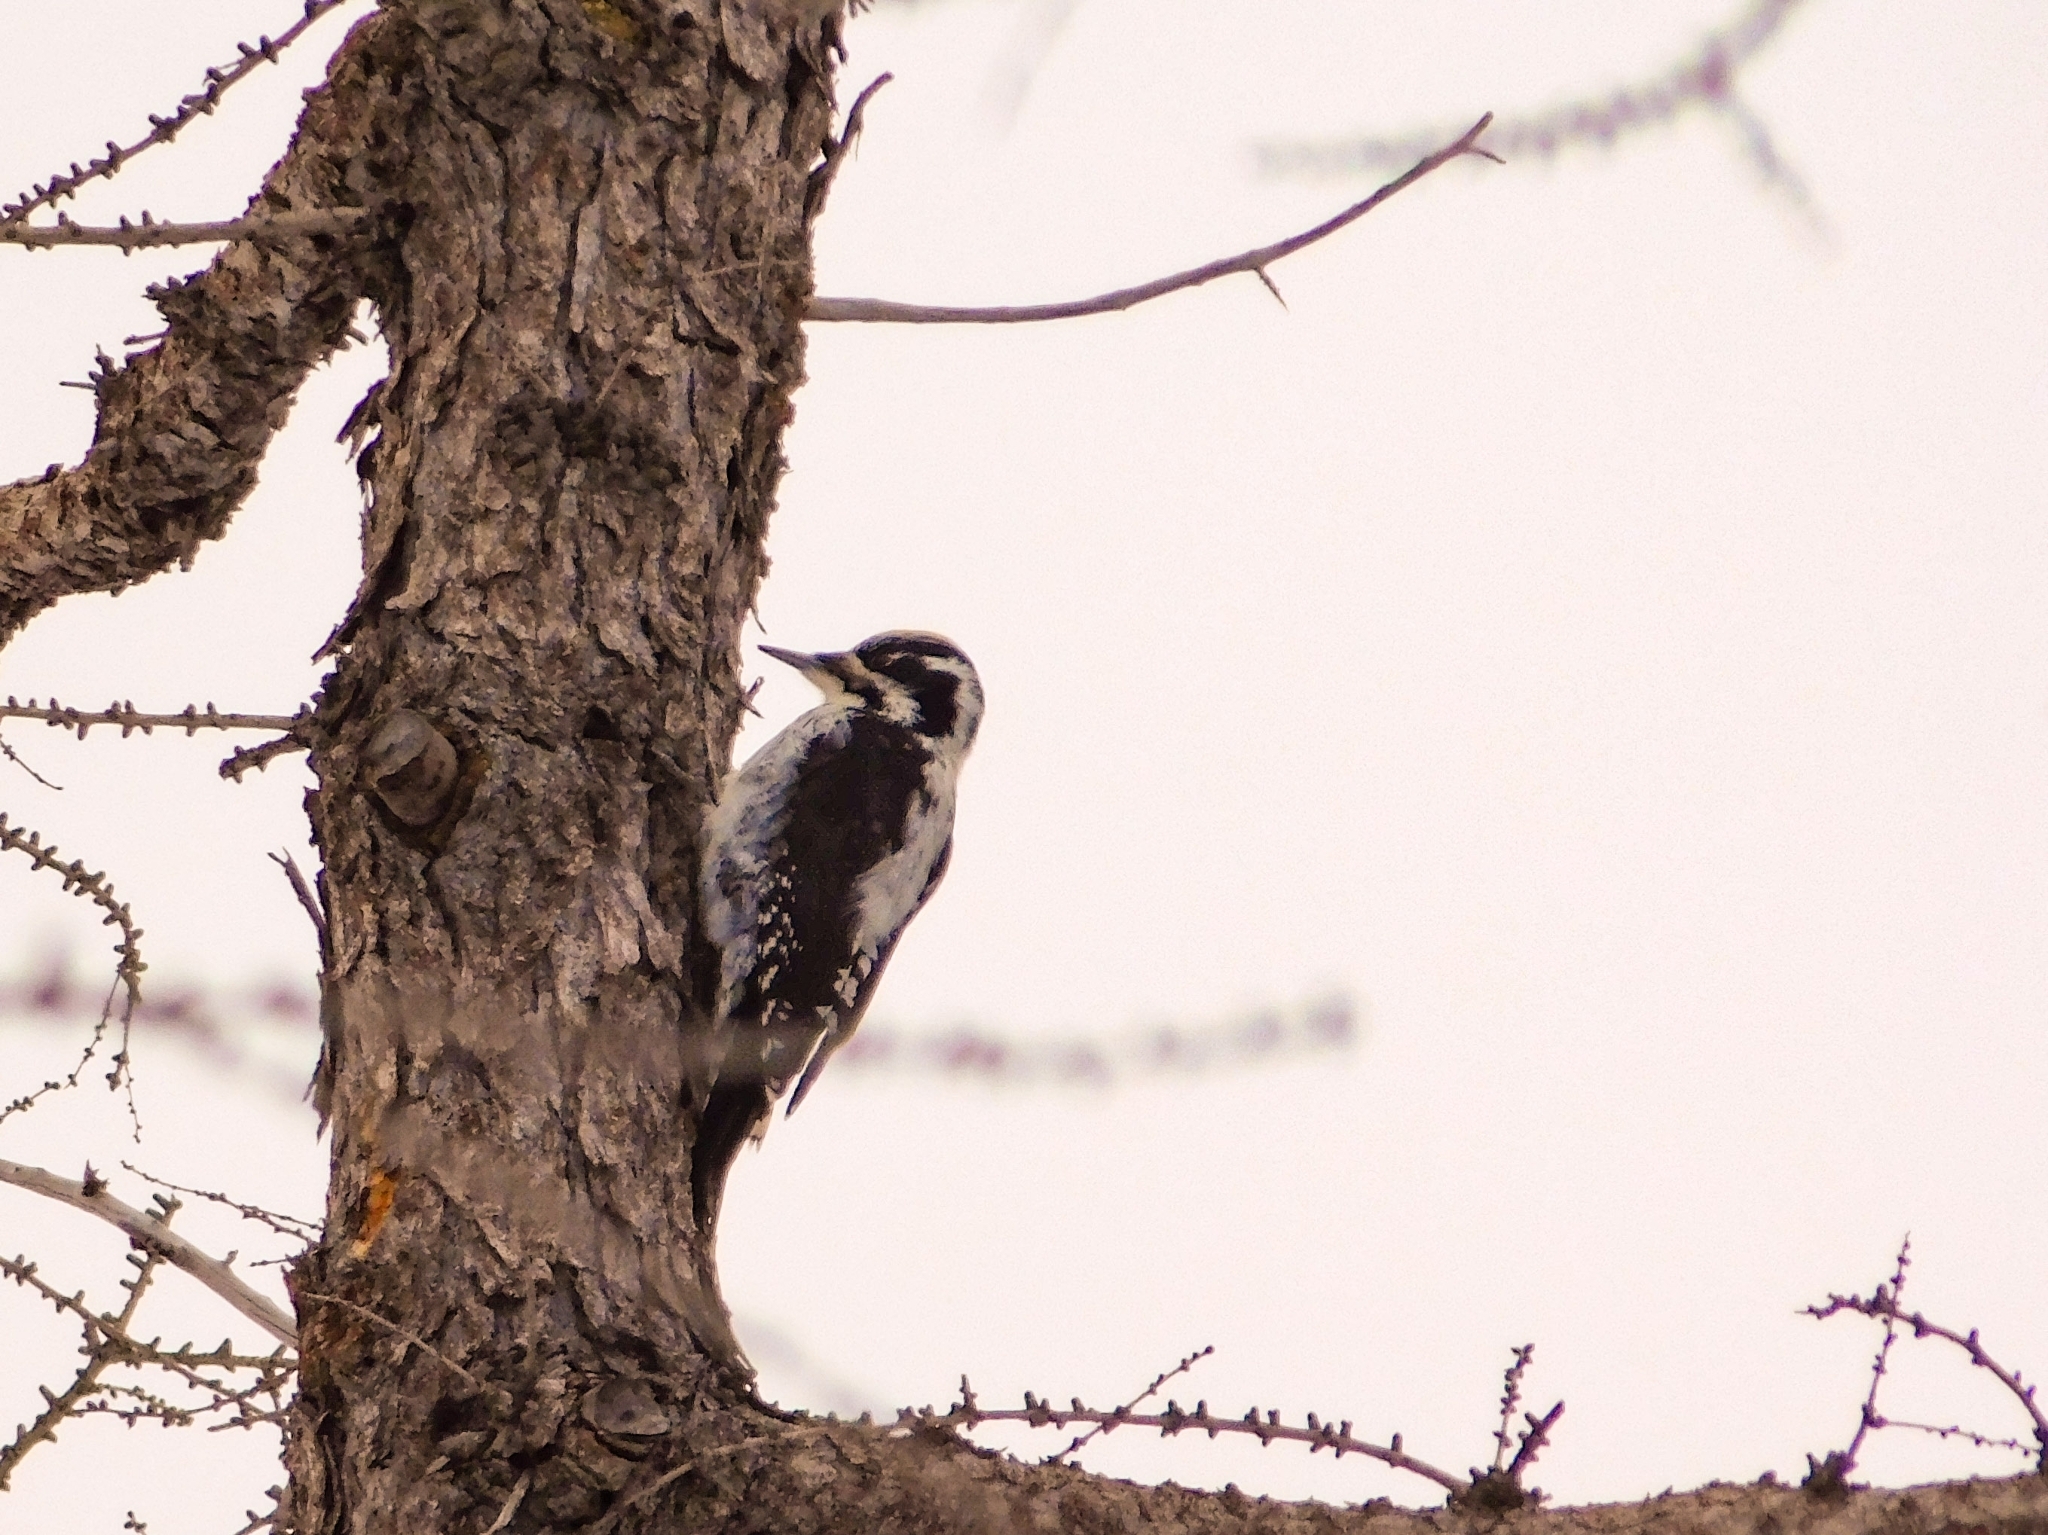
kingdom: Animalia
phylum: Chordata
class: Aves
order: Piciformes
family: Picidae
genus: Picoides
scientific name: Picoides tridactylus
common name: Eurasian three-toed woodpecker
